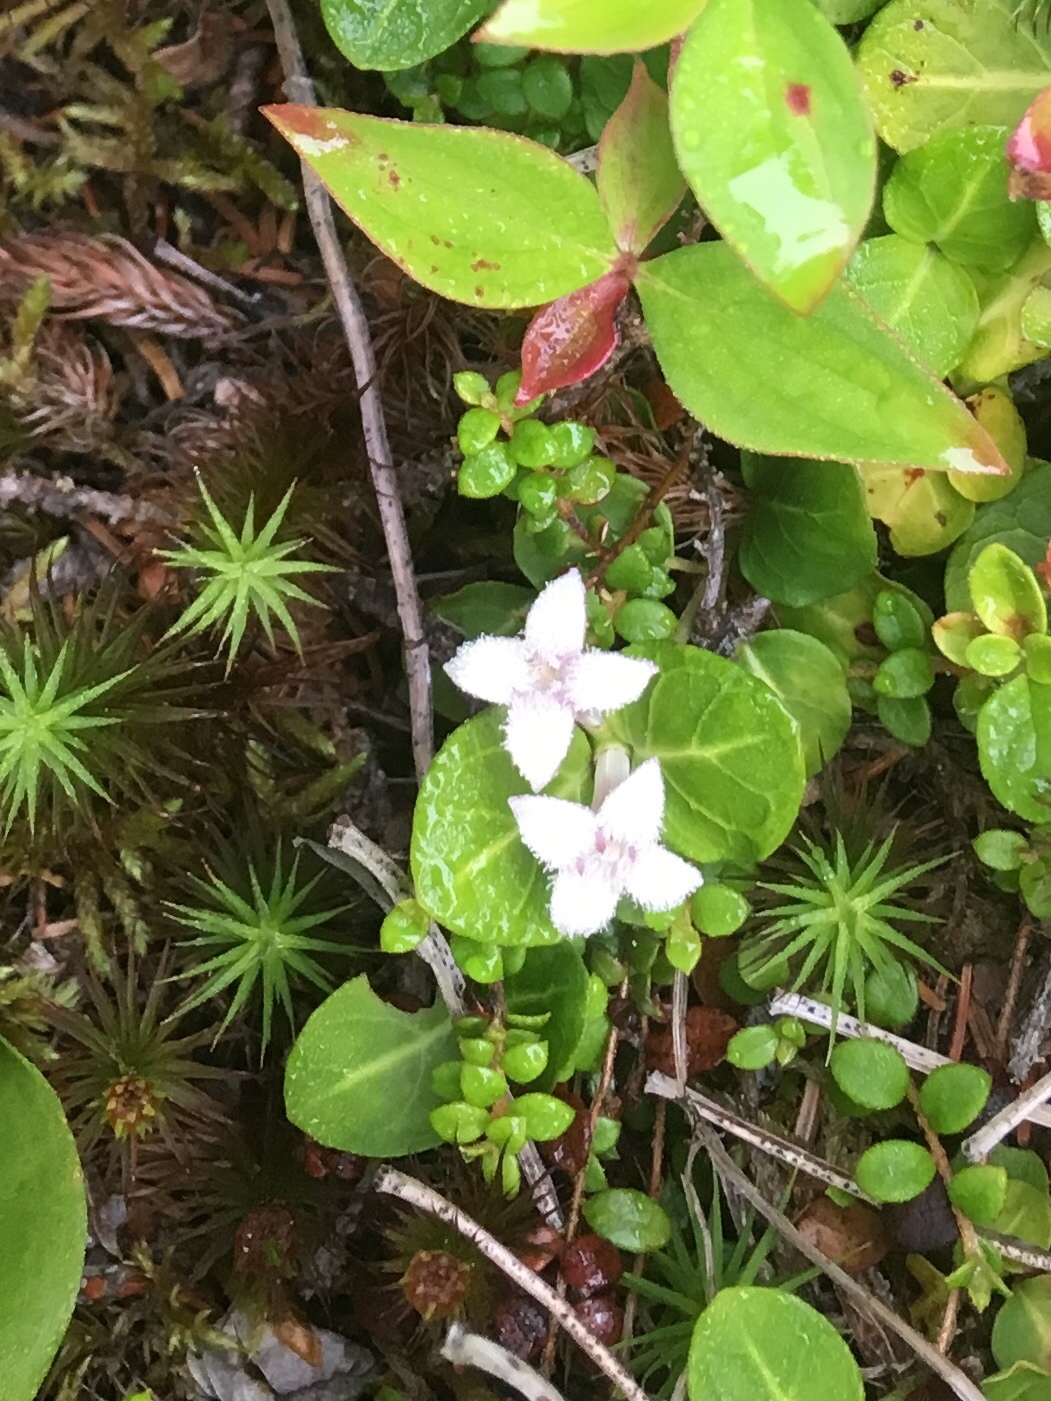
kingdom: Plantae
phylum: Tracheophyta
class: Magnoliopsida
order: Gentianales
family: Rubiaceae
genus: Mitchella
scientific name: Mitchella repens
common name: Partridge-berry
